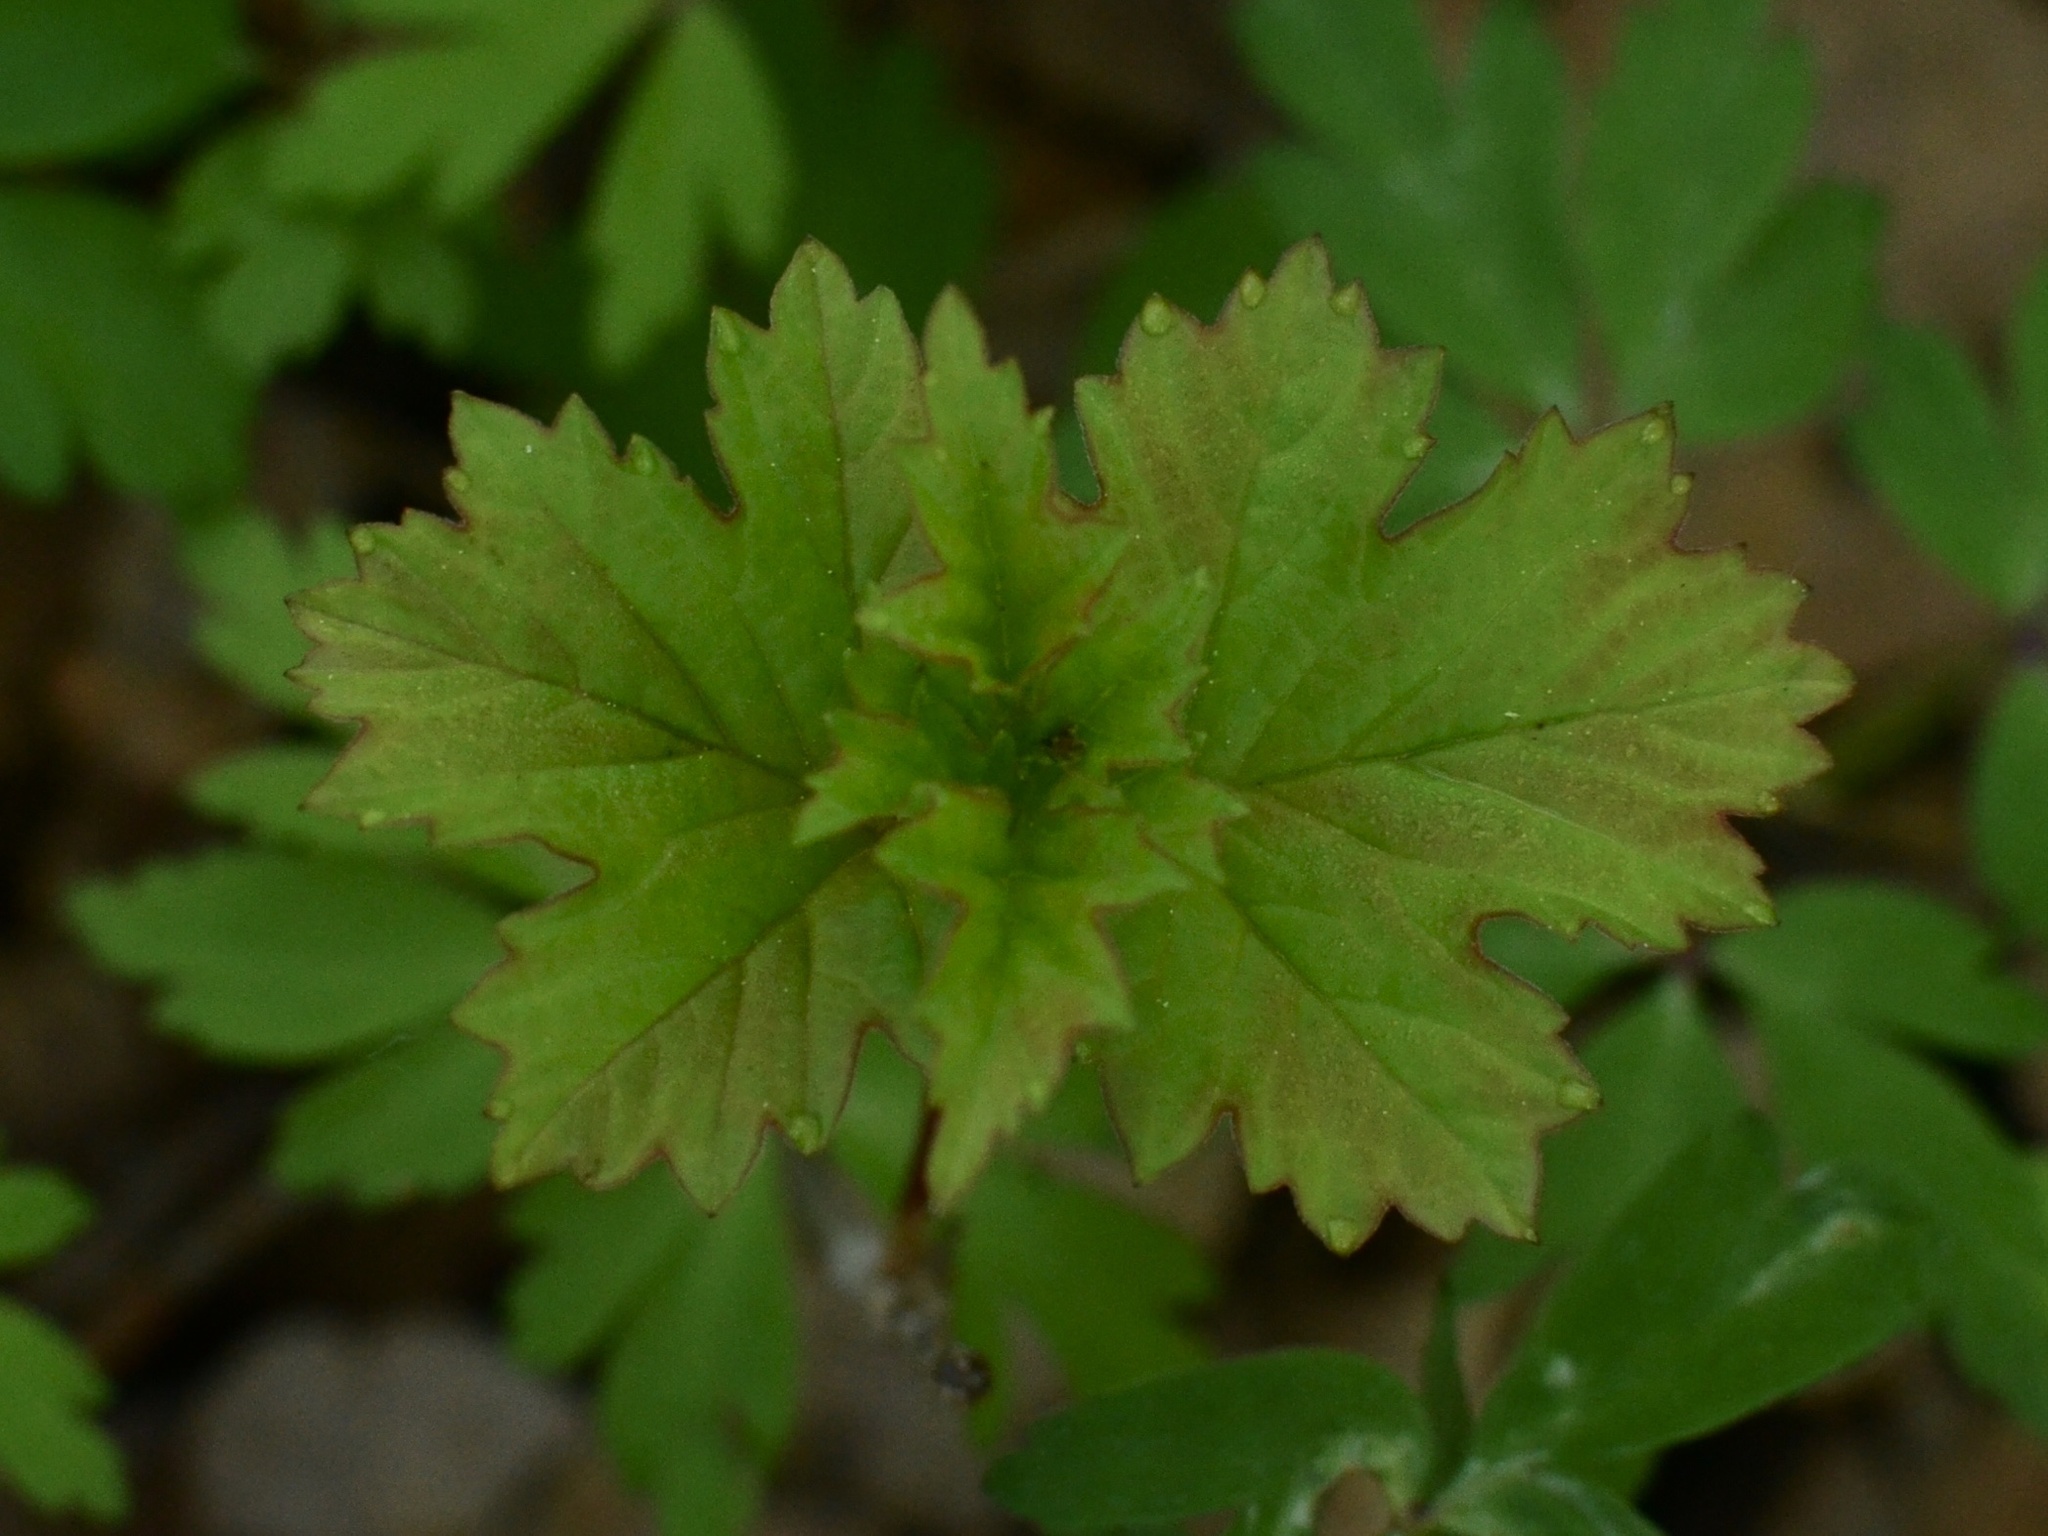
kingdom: Plantae
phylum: Tracheophyta
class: Magnoliopsida
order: Dipsacales
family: Viburnaceae
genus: Viburnum
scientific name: Viburnum opulus
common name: Guelder-rose
